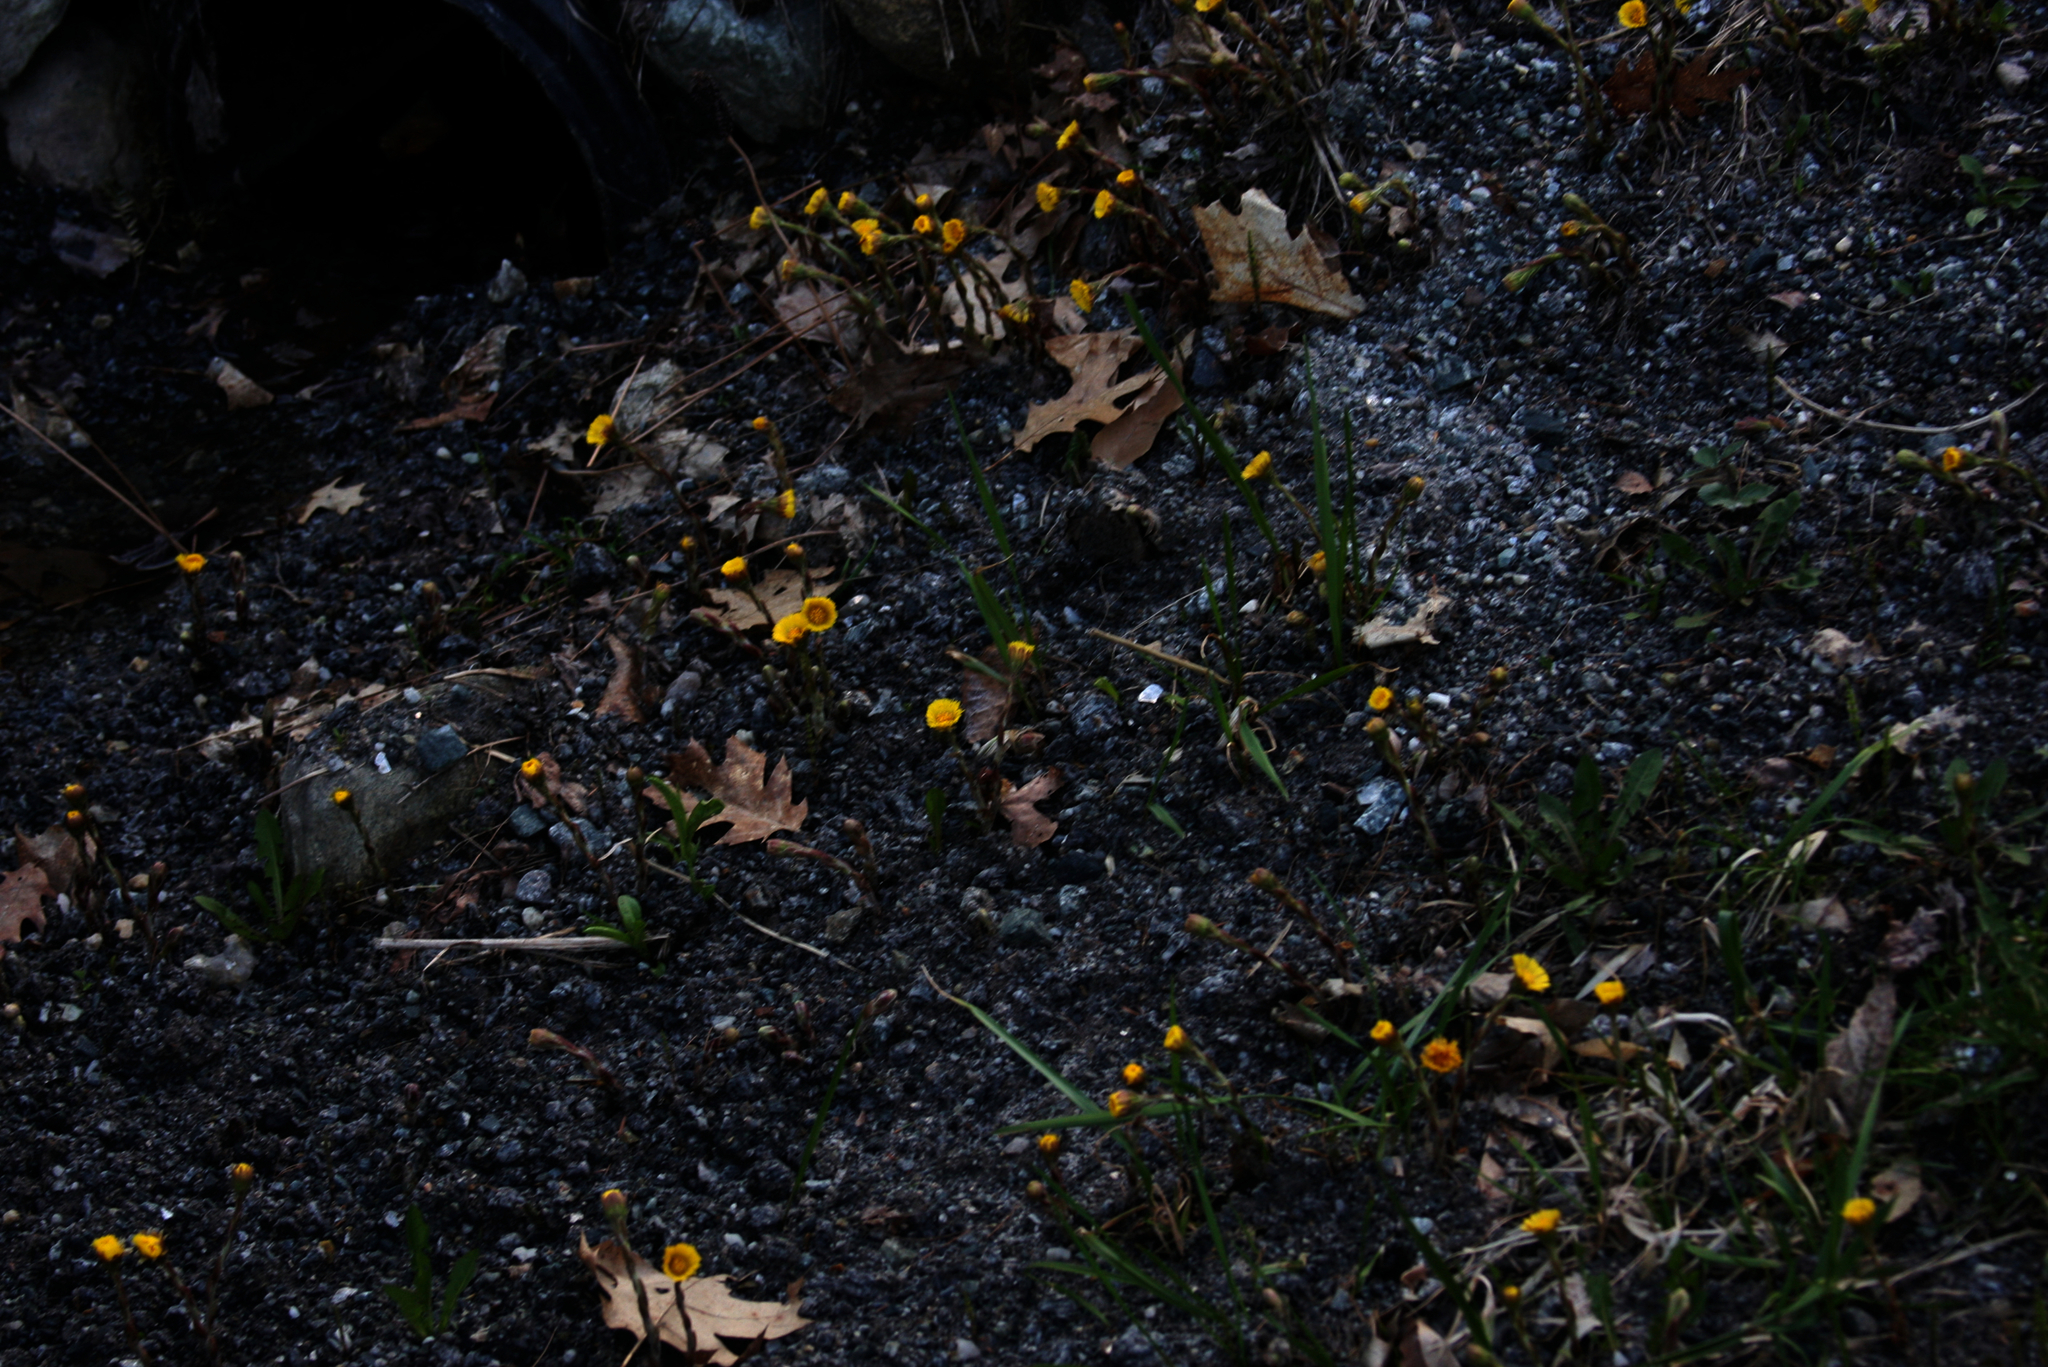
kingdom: Plantae
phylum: Tracheophyta
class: Magnoliopsida
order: Asterales
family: Asteraceae
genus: Tussilago
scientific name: Tussilago farfara
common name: Coltsfoot
